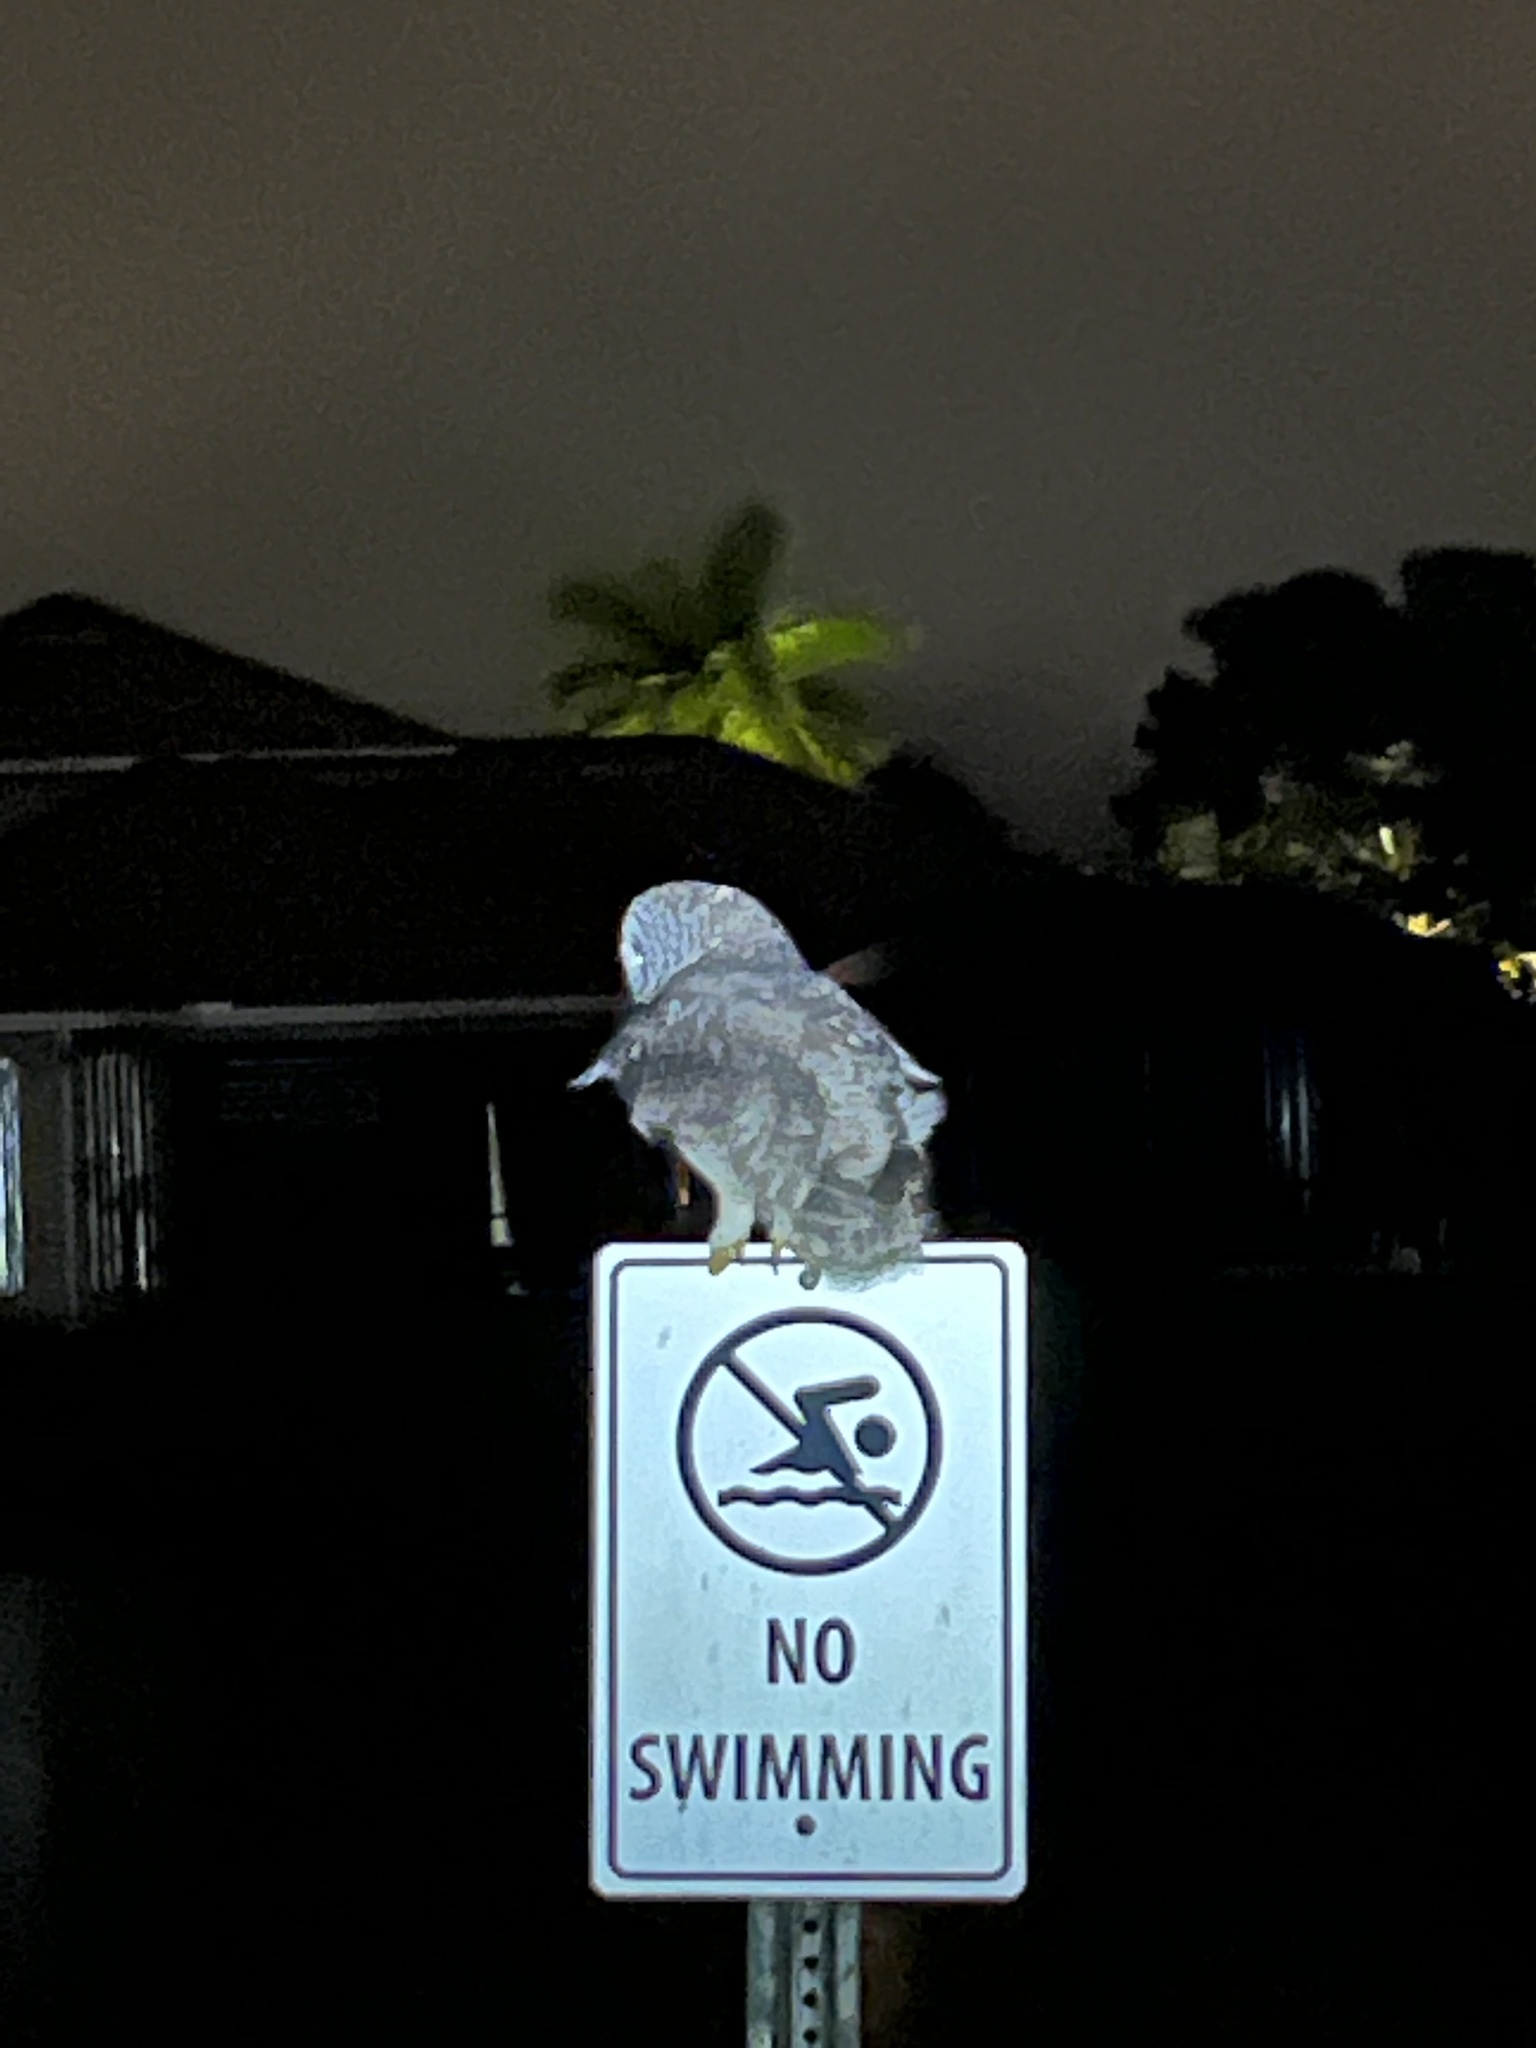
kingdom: Animalia
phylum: Chordata
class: Aves
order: Strigiformes
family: Strigidae
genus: Strix
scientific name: Strix varia
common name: Barred owl
